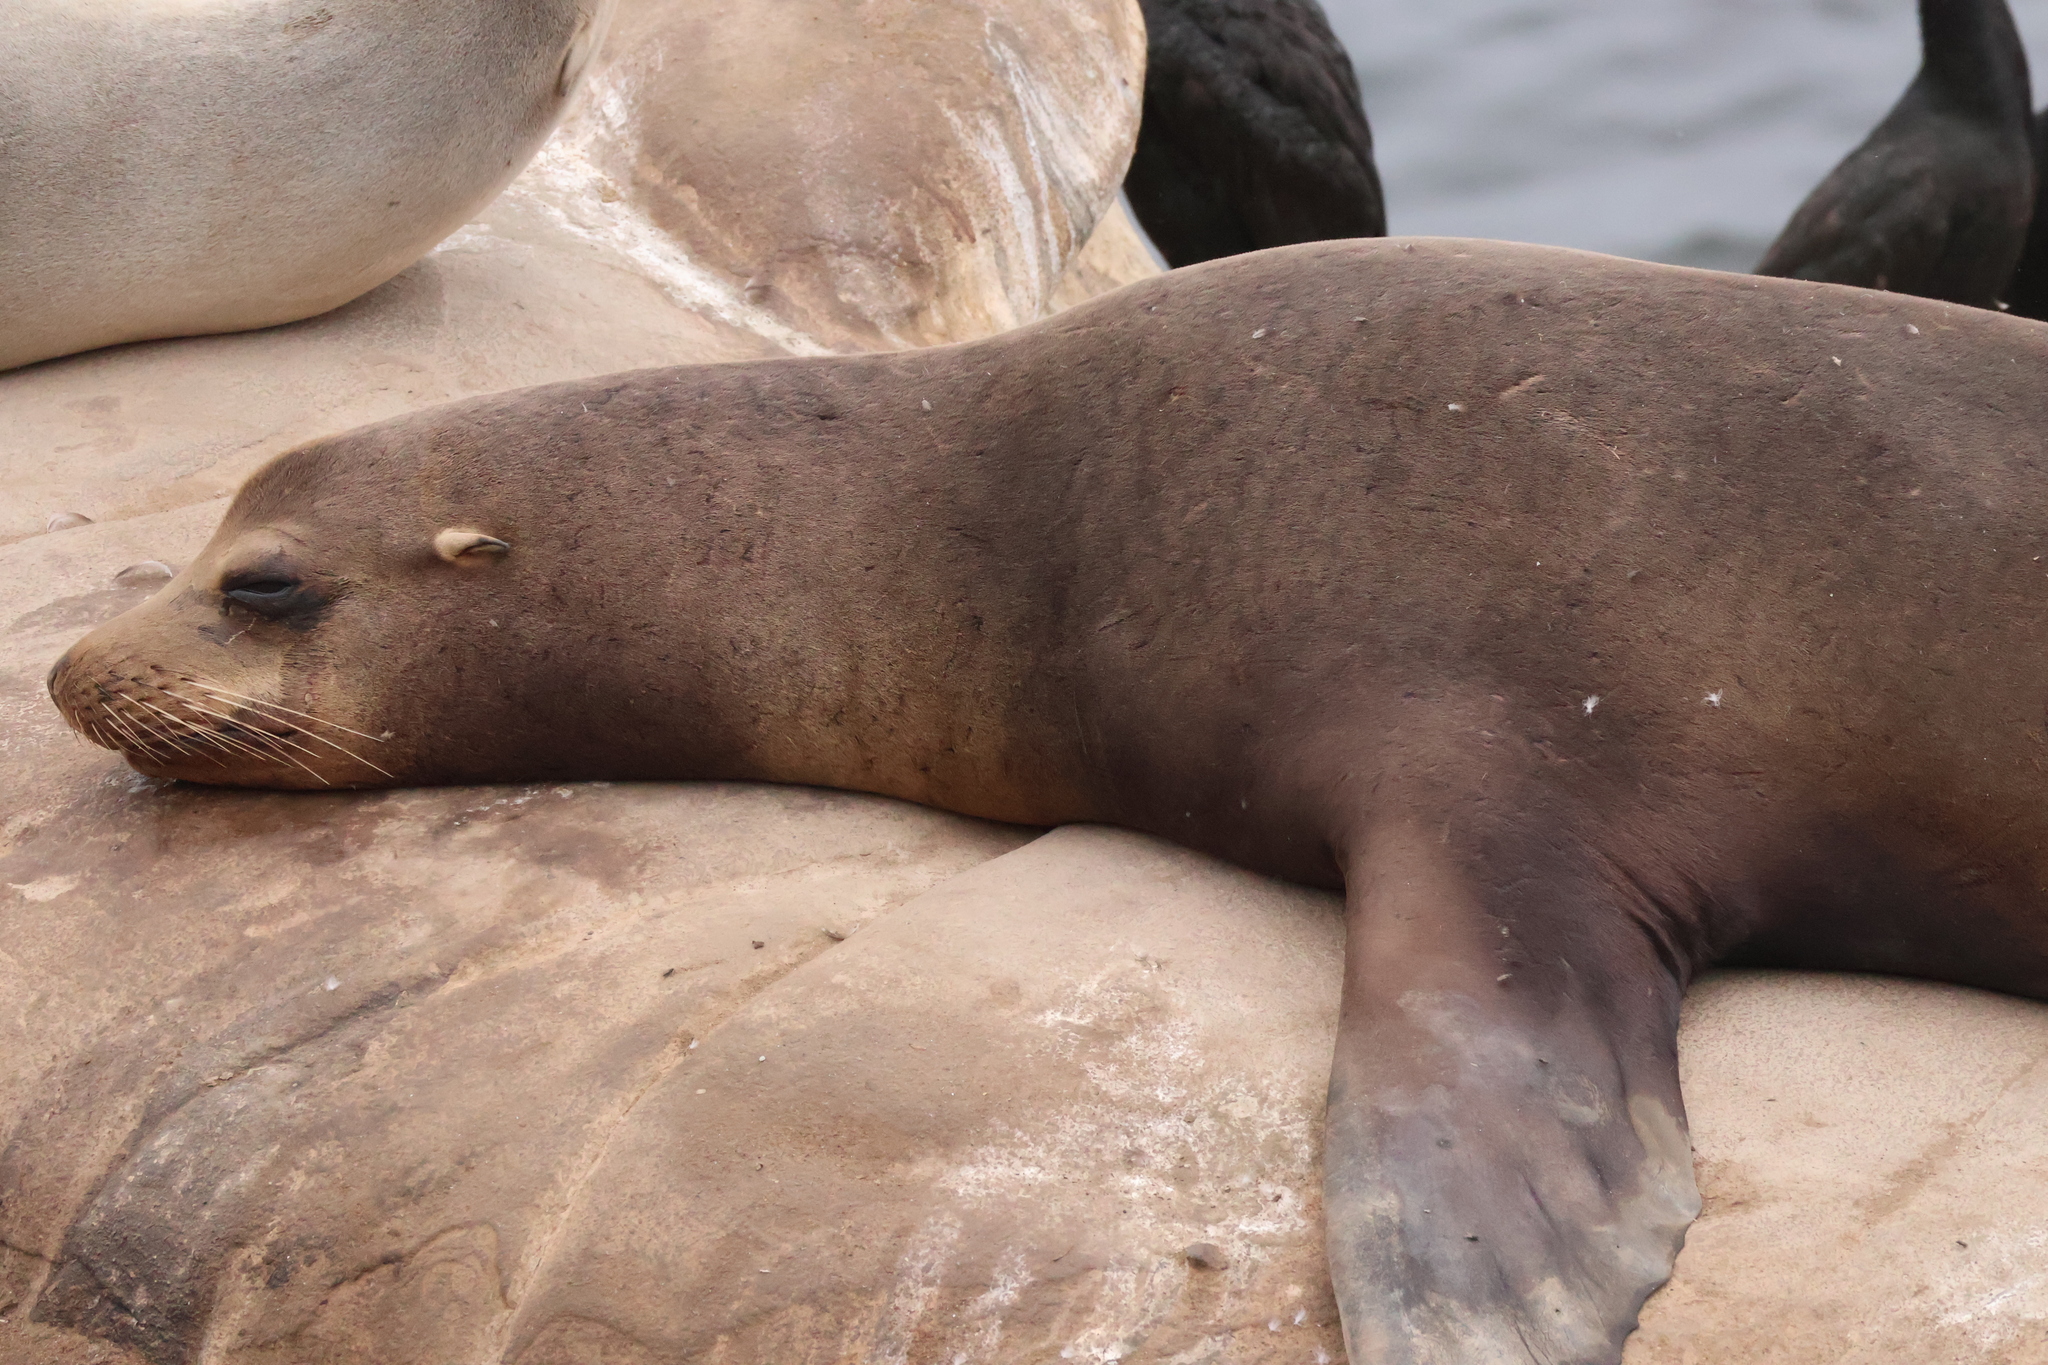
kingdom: Animalia
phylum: Chordata
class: Mammalia
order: Carnivora
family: Otariidae
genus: Zalophus
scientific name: Zalophus californianus
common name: California sea lion
